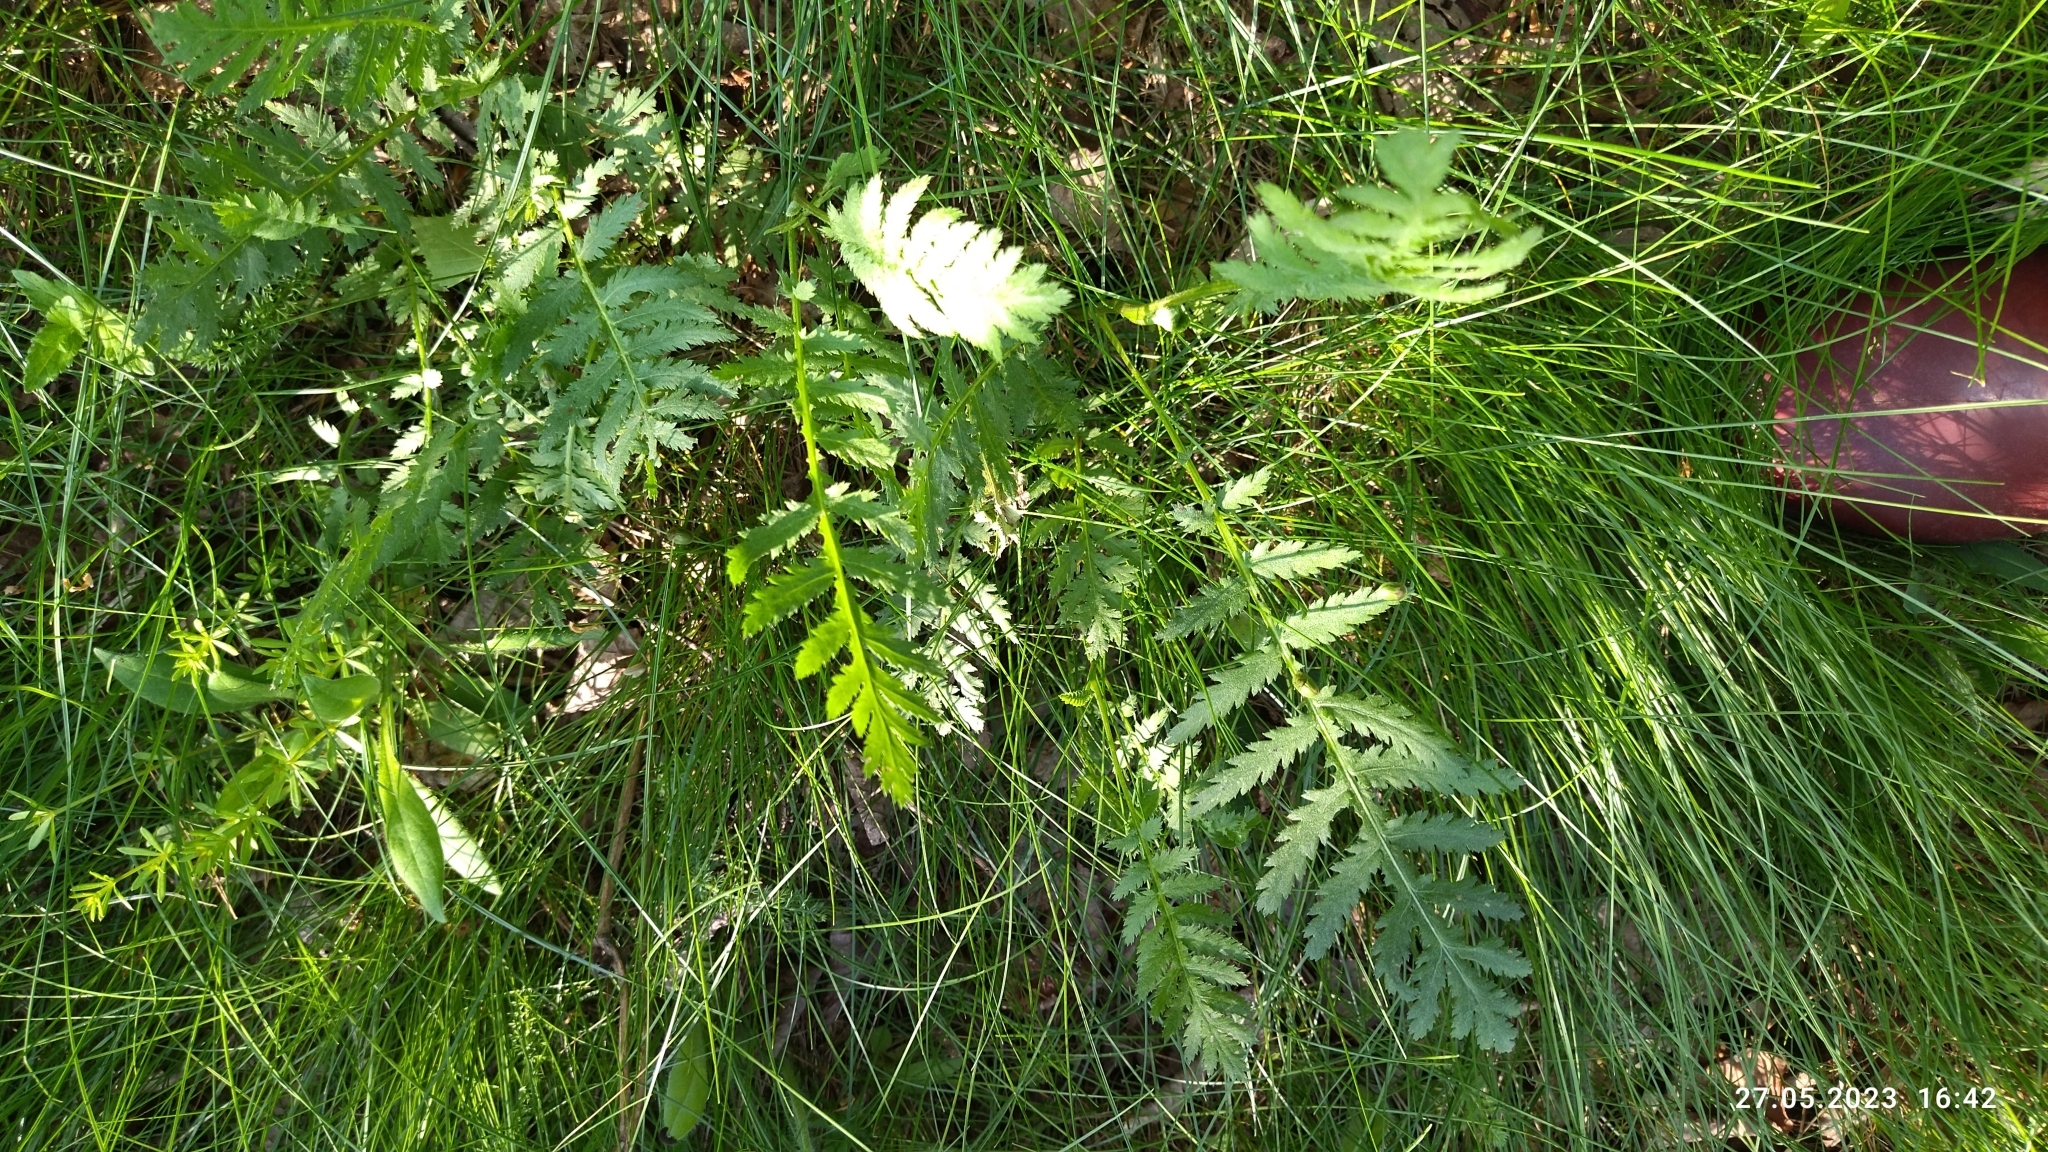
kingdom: Plantae
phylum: Tracheophyta
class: Magnoliopsida
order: Asterales
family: Asteraceae
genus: Tanacetum
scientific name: Tanacetum vulgare
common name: Common tansy
